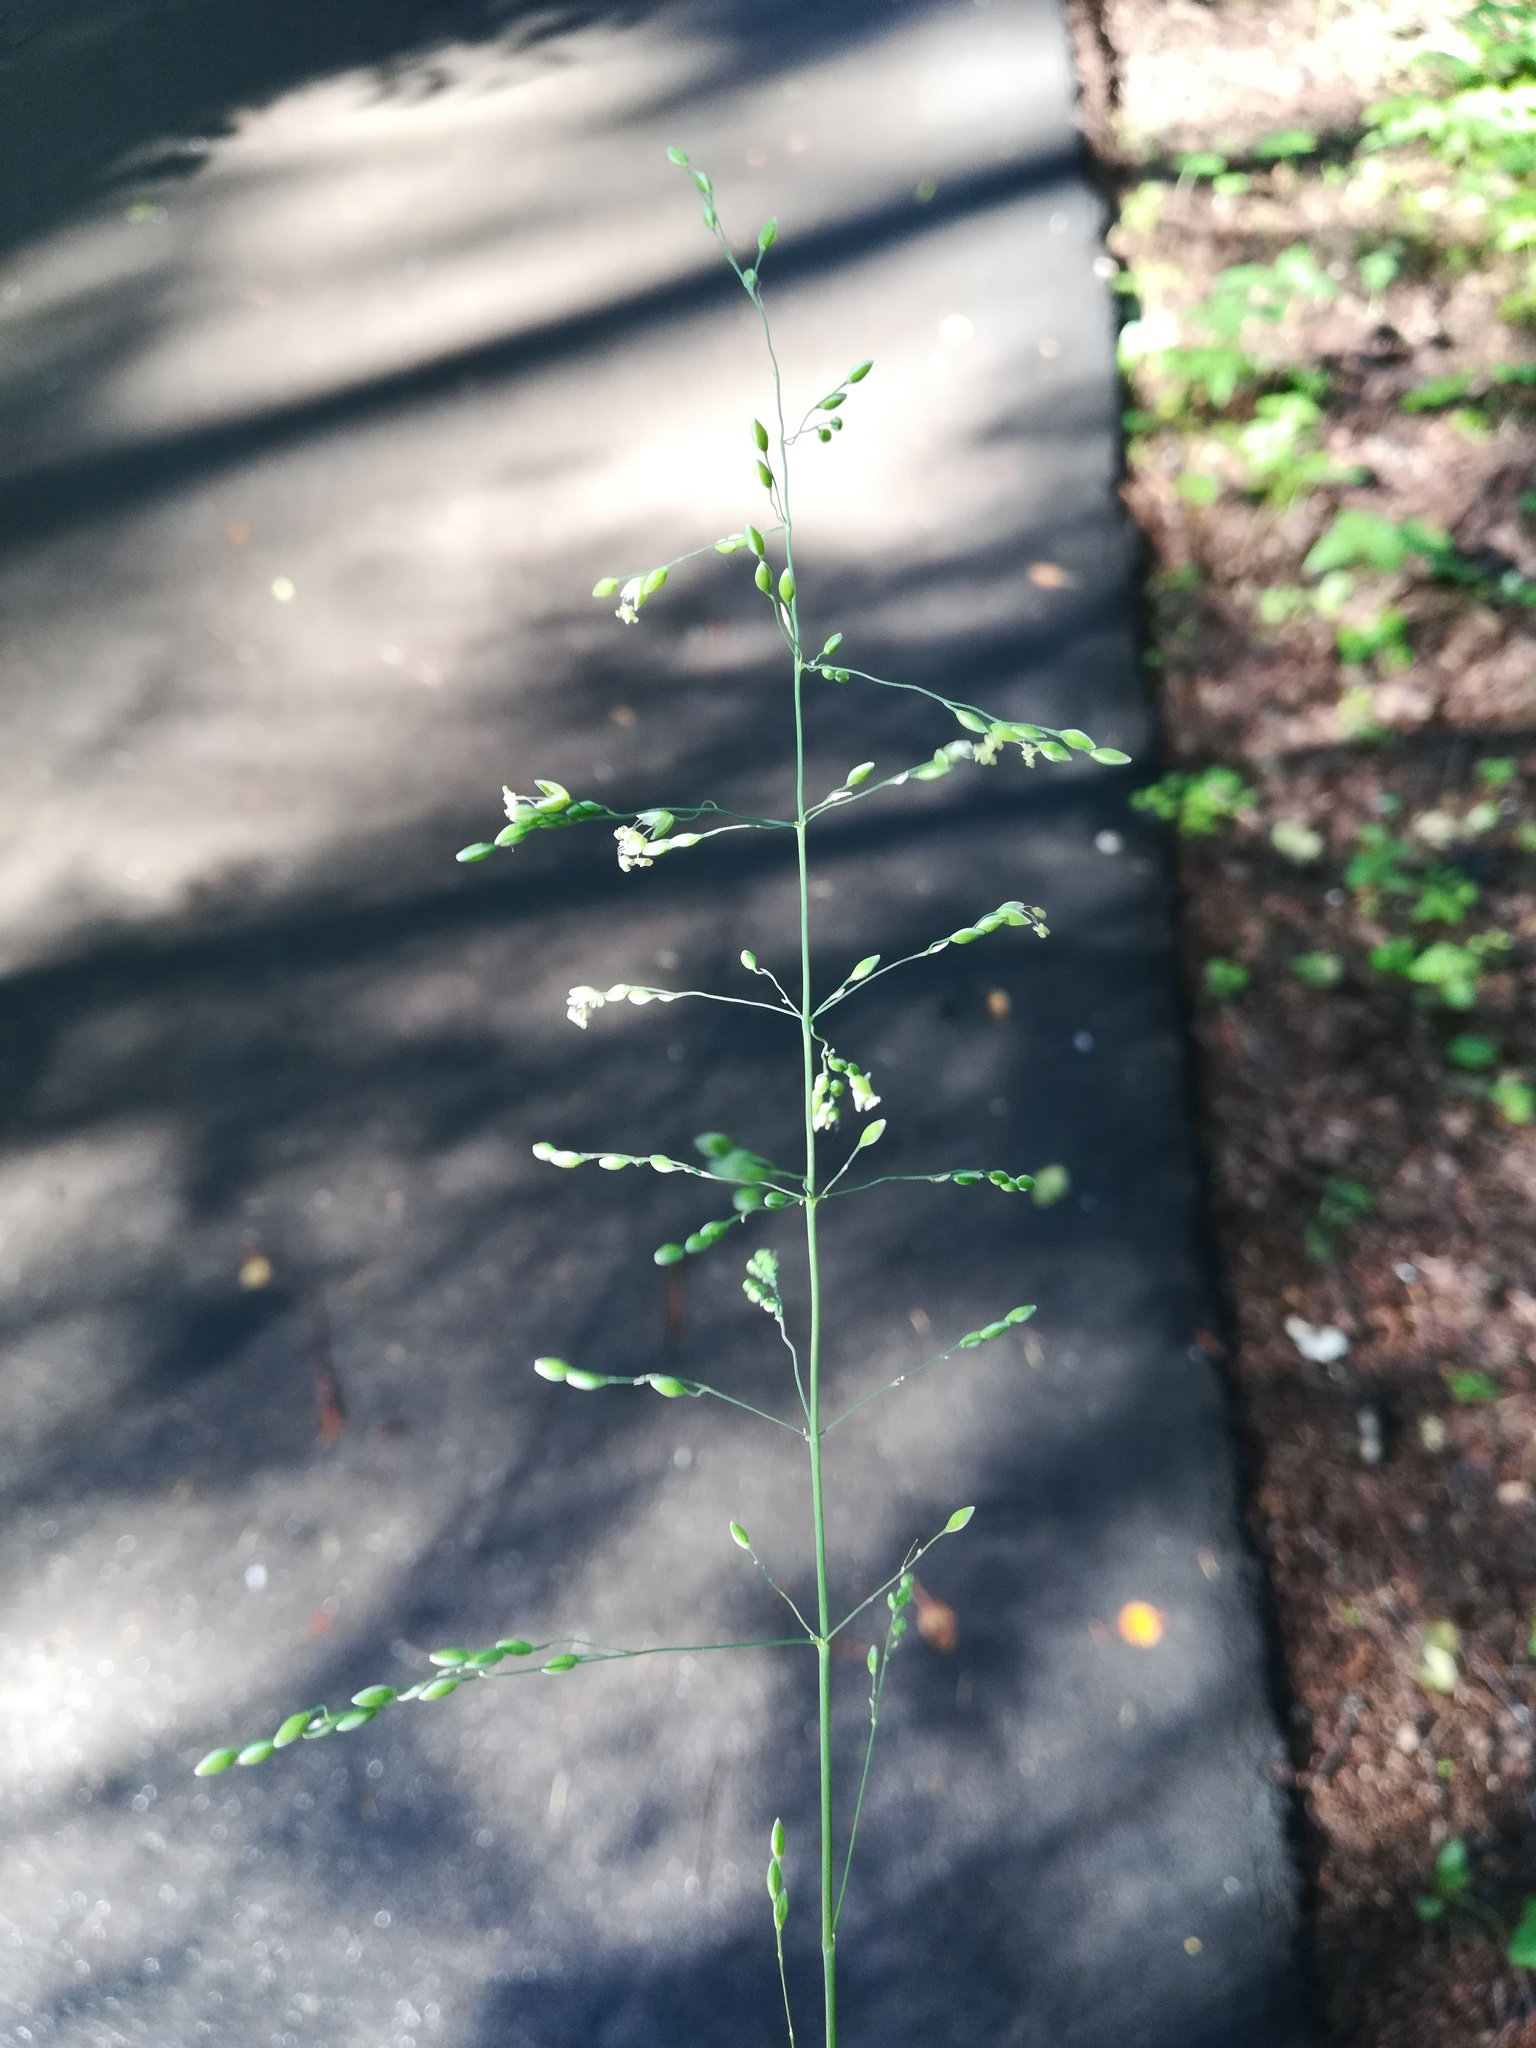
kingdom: Plantae
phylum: Tracheophyta
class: Liliopsida
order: Poales
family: Poaceae
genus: Milium
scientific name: Milium effusum
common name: Wood millet
